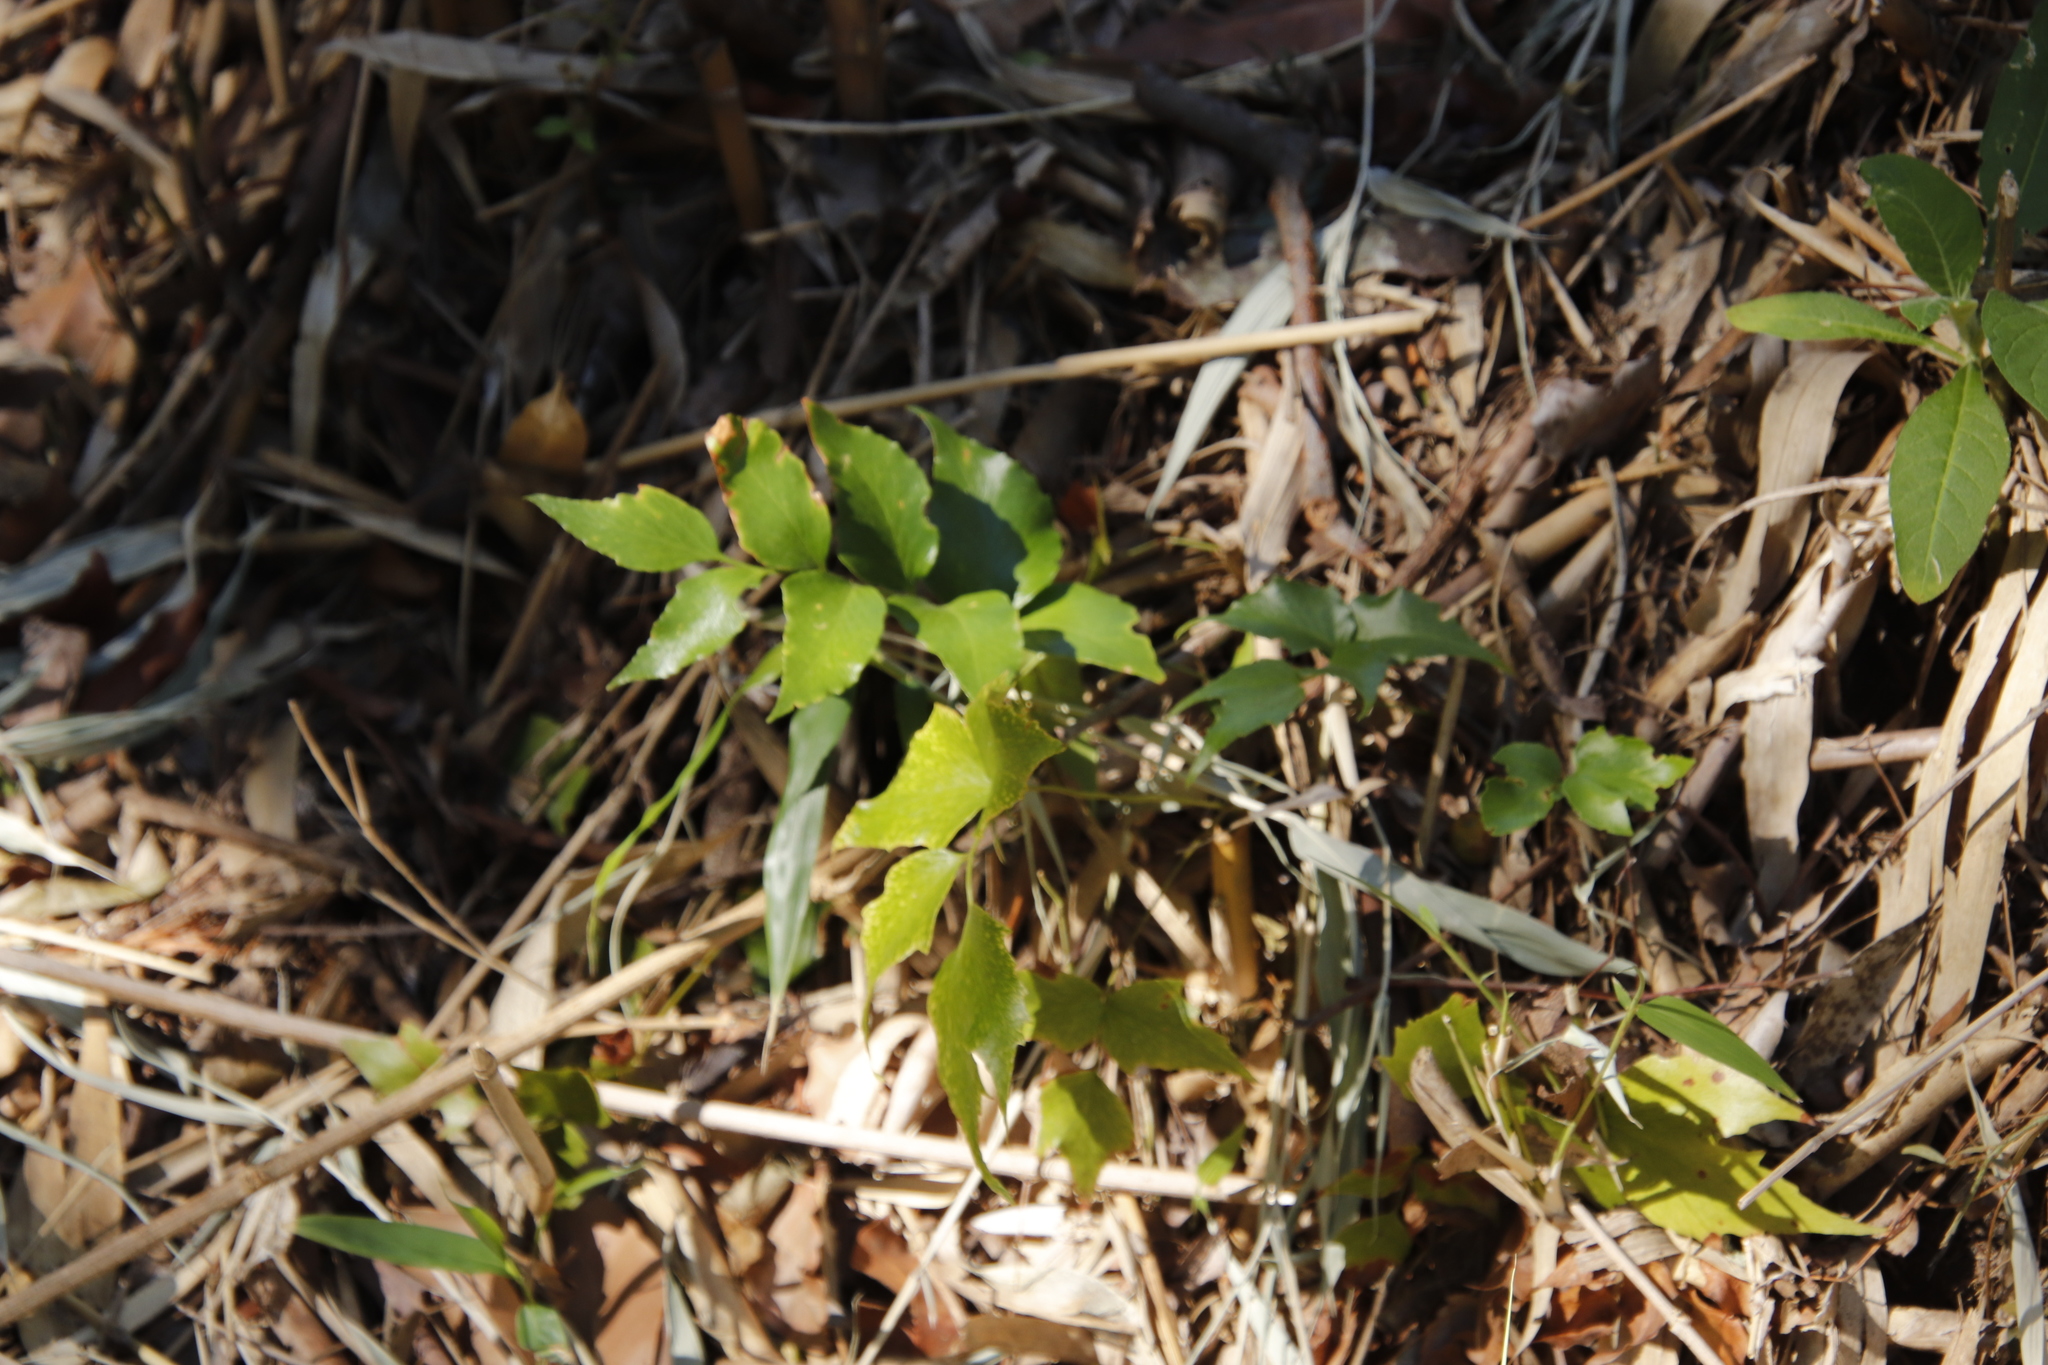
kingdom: Plantae
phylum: Tracheophyta
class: Polypodiopsida
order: Polypodiales
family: Dryopteridaceae
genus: Cyrtomium
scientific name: Cyrtomium falcatum
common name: House holly-fern
